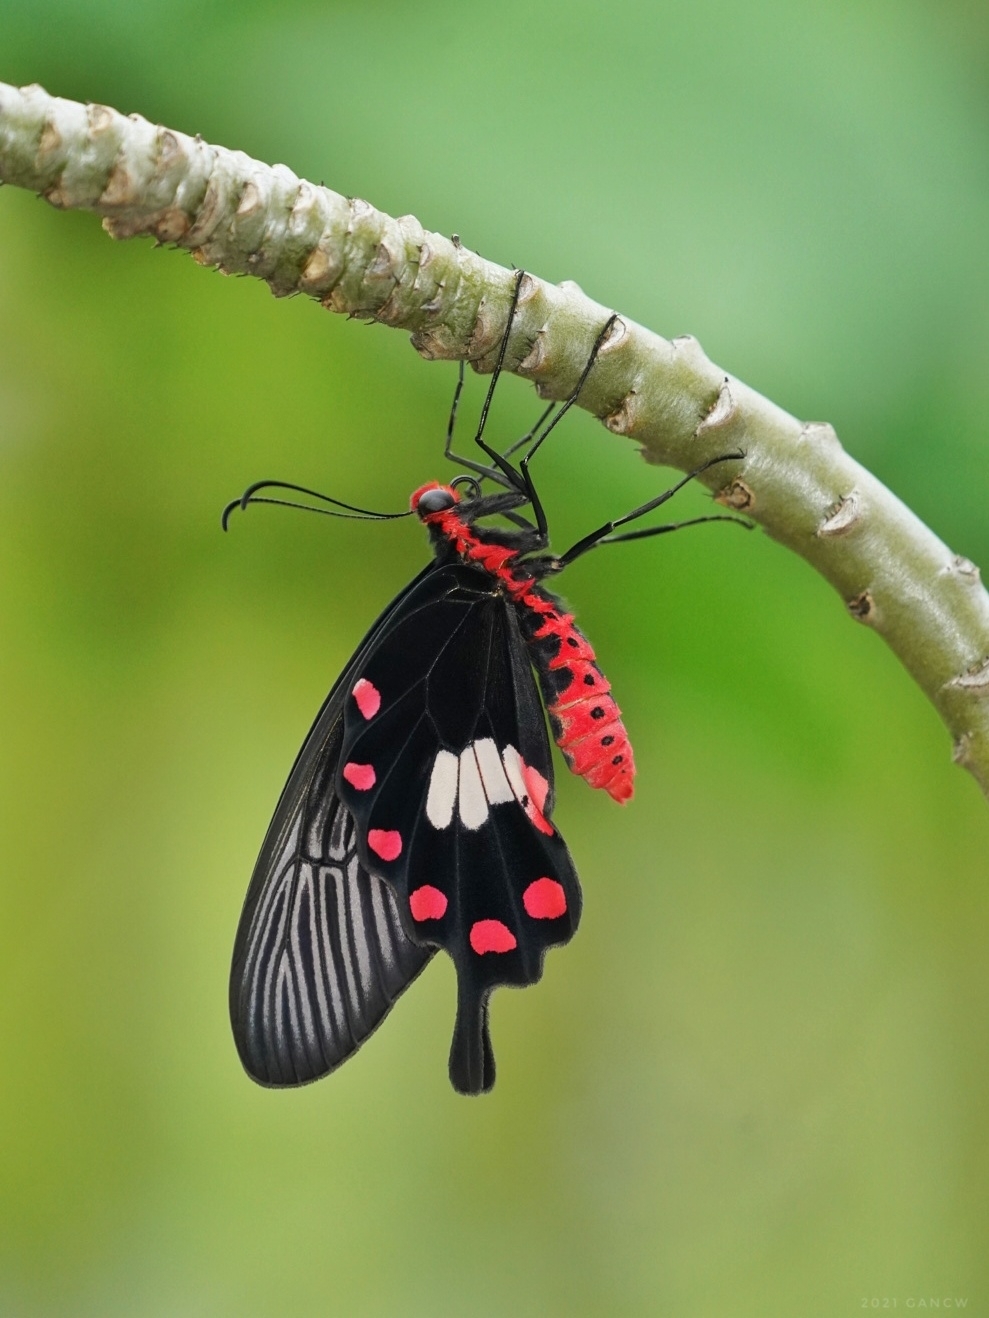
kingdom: Animalia
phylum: Arthropoda
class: Insecta
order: Lepidoptera
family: Papilionidae
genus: Pachliopta
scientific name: Pachliopta aristolochiae
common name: Common rose
